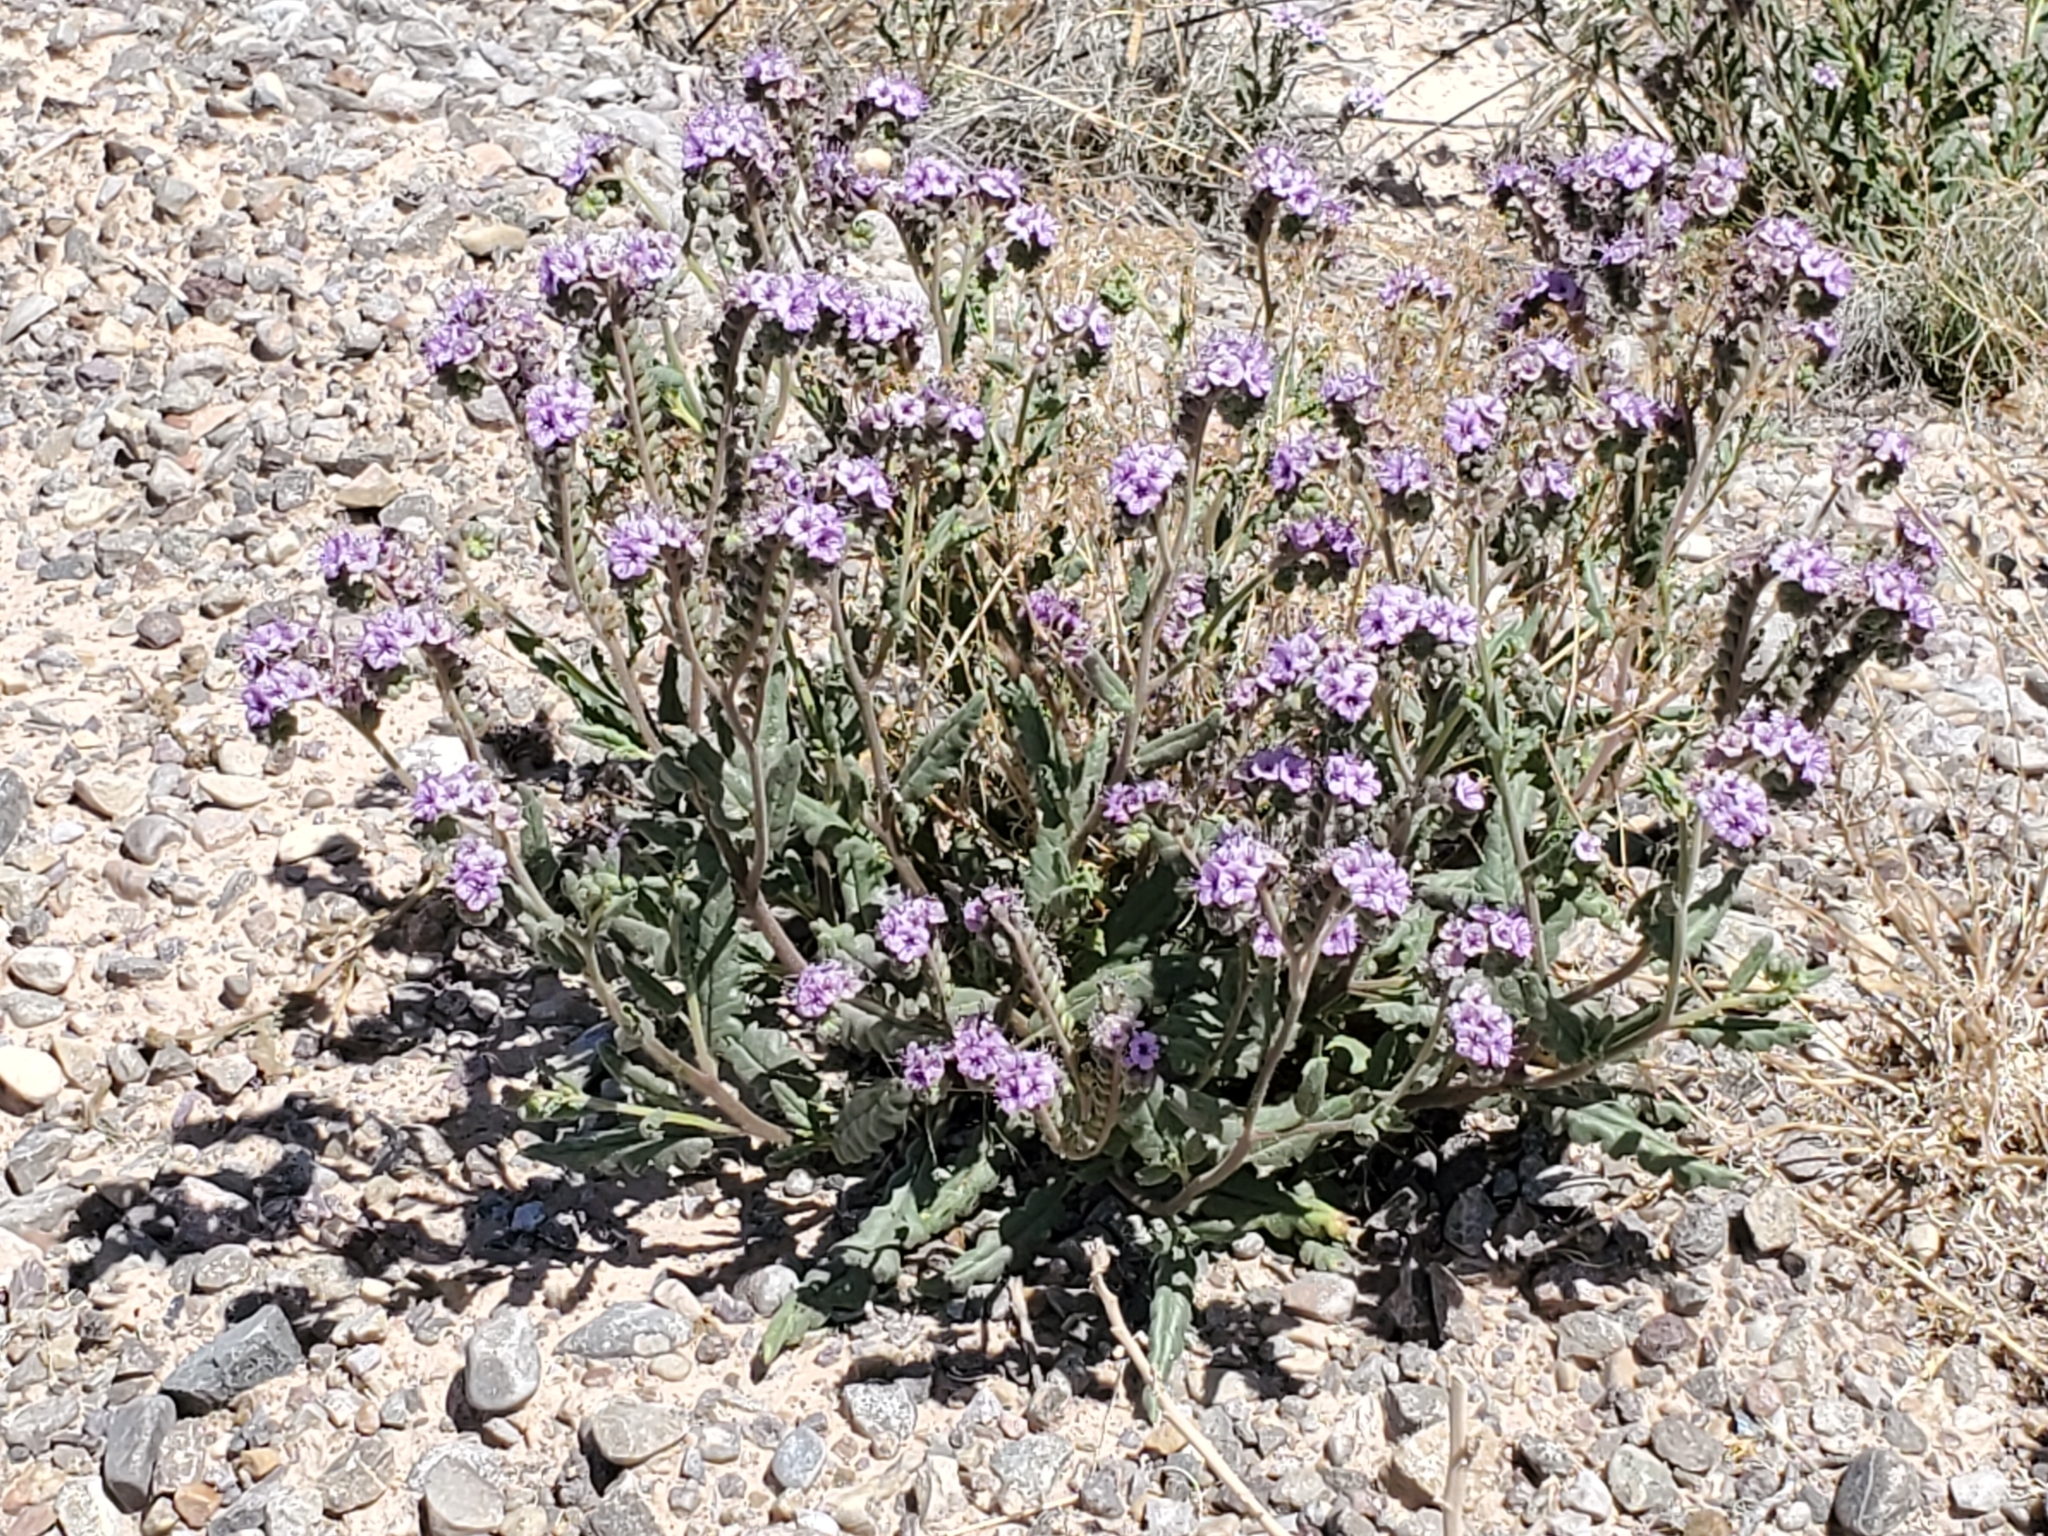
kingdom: Plantae
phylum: Tracheophyta
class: Magnoliopsida
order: Boraginales
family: Hydrophyllaceae
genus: Phacelia
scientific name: Phacelia integrifolia
